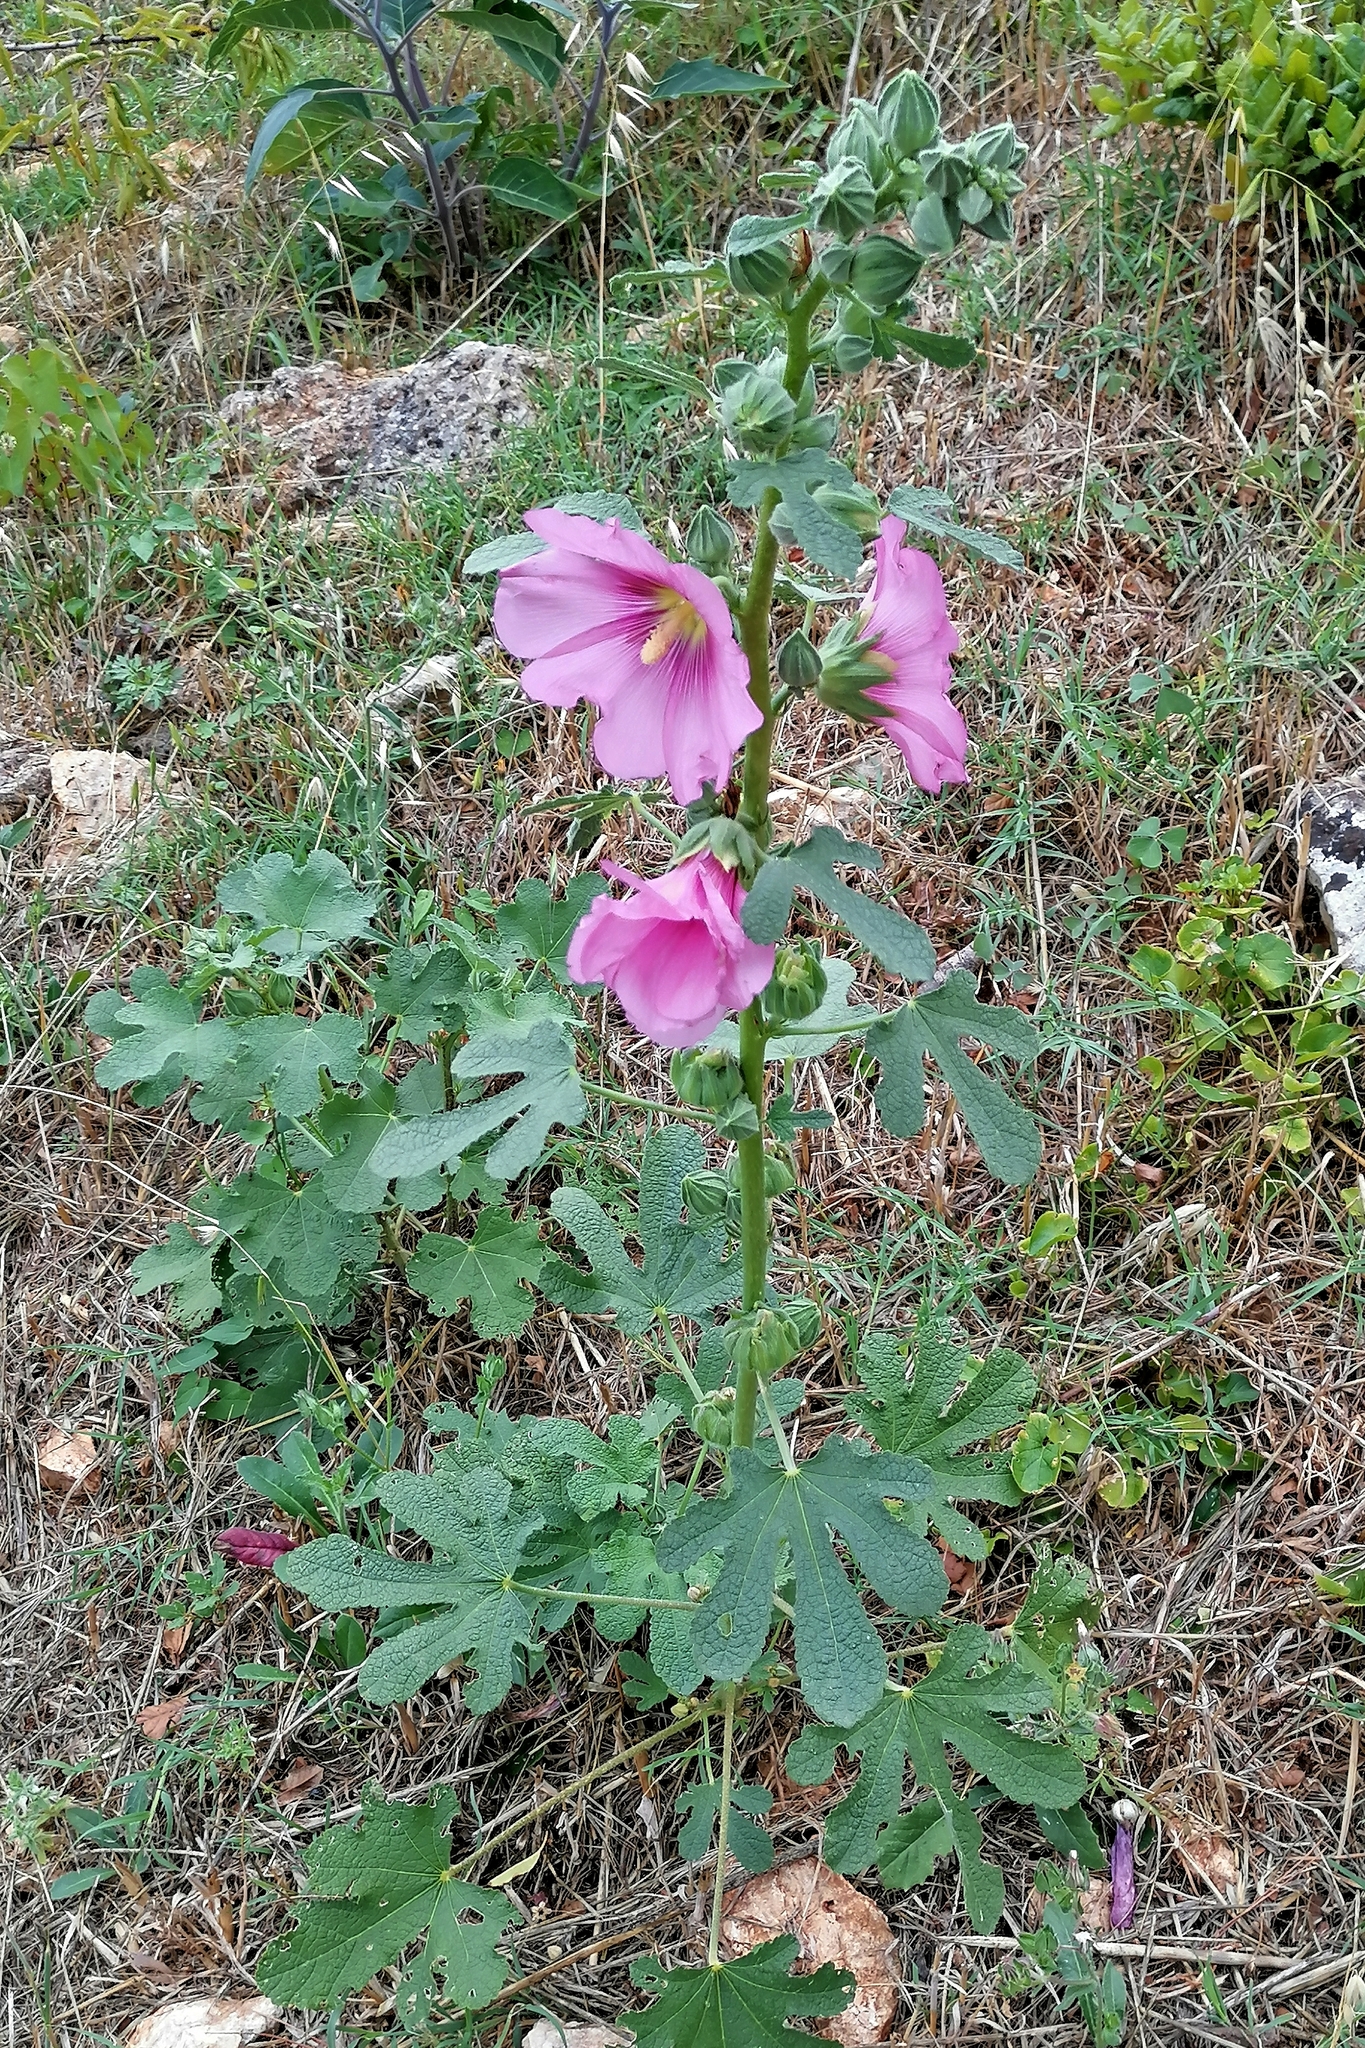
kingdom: Plantae
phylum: Tracheophyta
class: Magnoliopsida
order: Malvales
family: Malvaceae
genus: Alcea
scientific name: Alcea rosea
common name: Hollyhock
